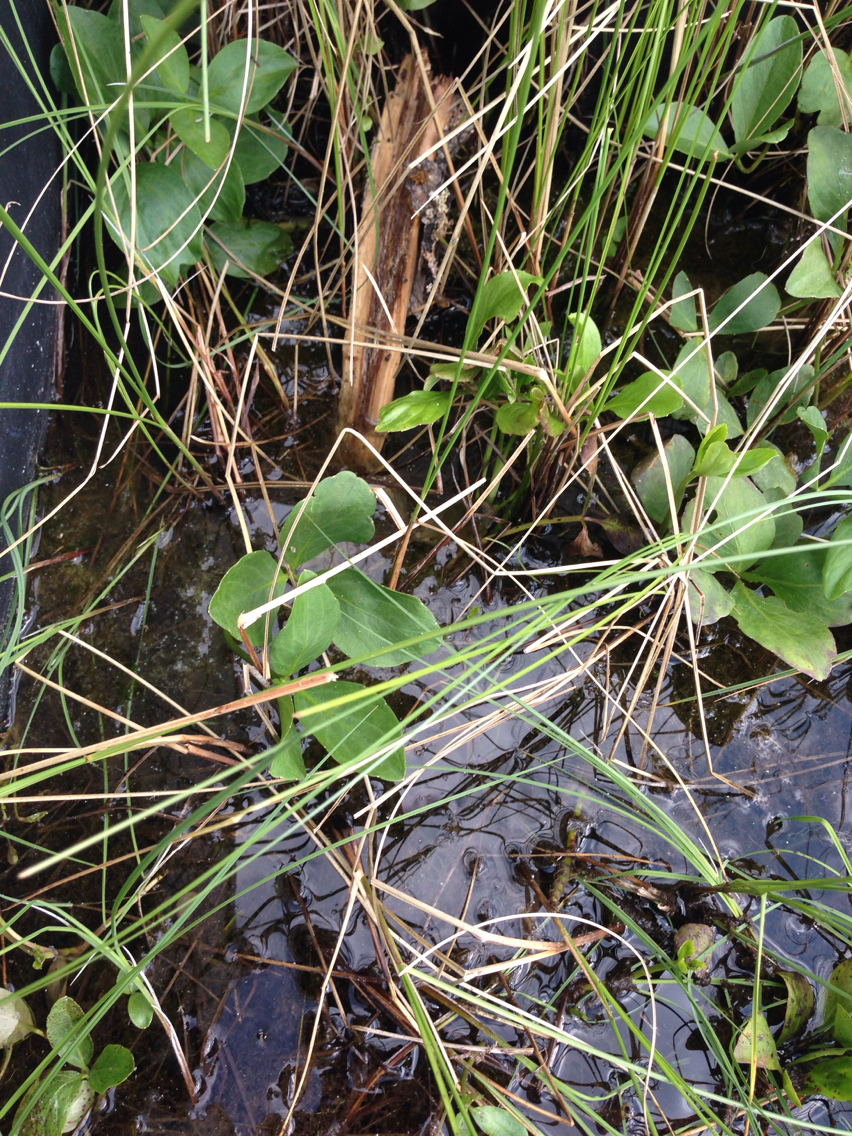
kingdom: Plantae
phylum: Tracheophyta
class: Magnoliopsida
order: Asterales
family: Menyanthaceae
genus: Menyanthes
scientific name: Menyanthes trifoliata
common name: Bogbean
